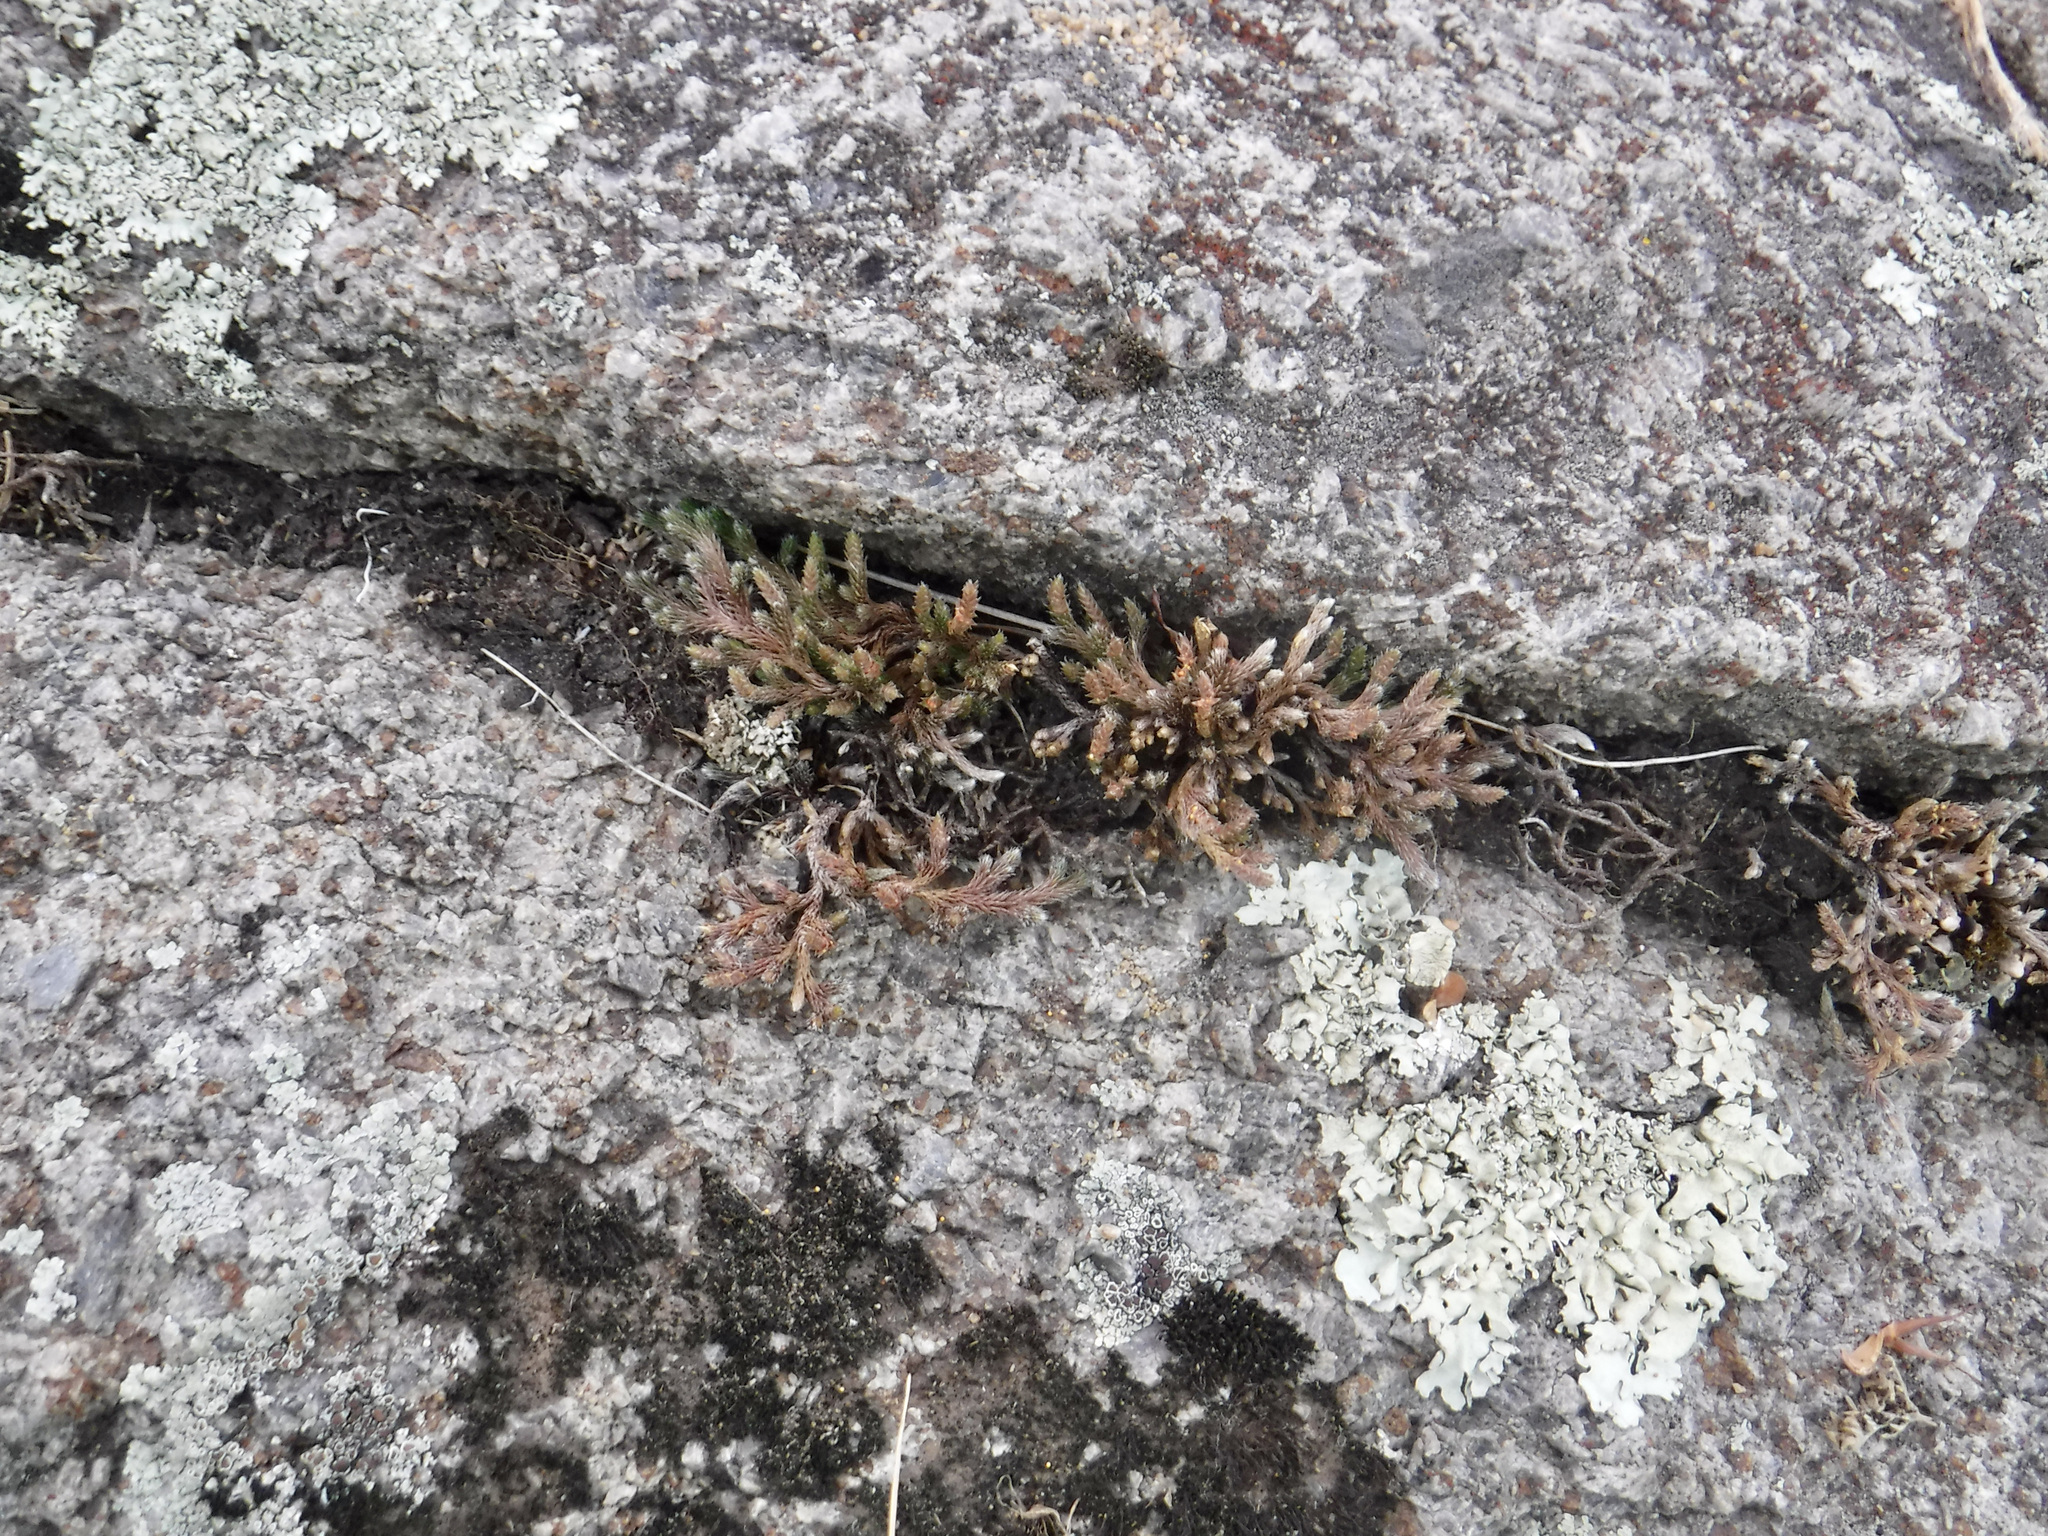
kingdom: Plantae
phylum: Tracheophyta
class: Lycopodiopsida
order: Selaginellales
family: Selaginellaceae
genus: Selaginella
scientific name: Selaginella rupestris
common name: Dwarf spikemoss
